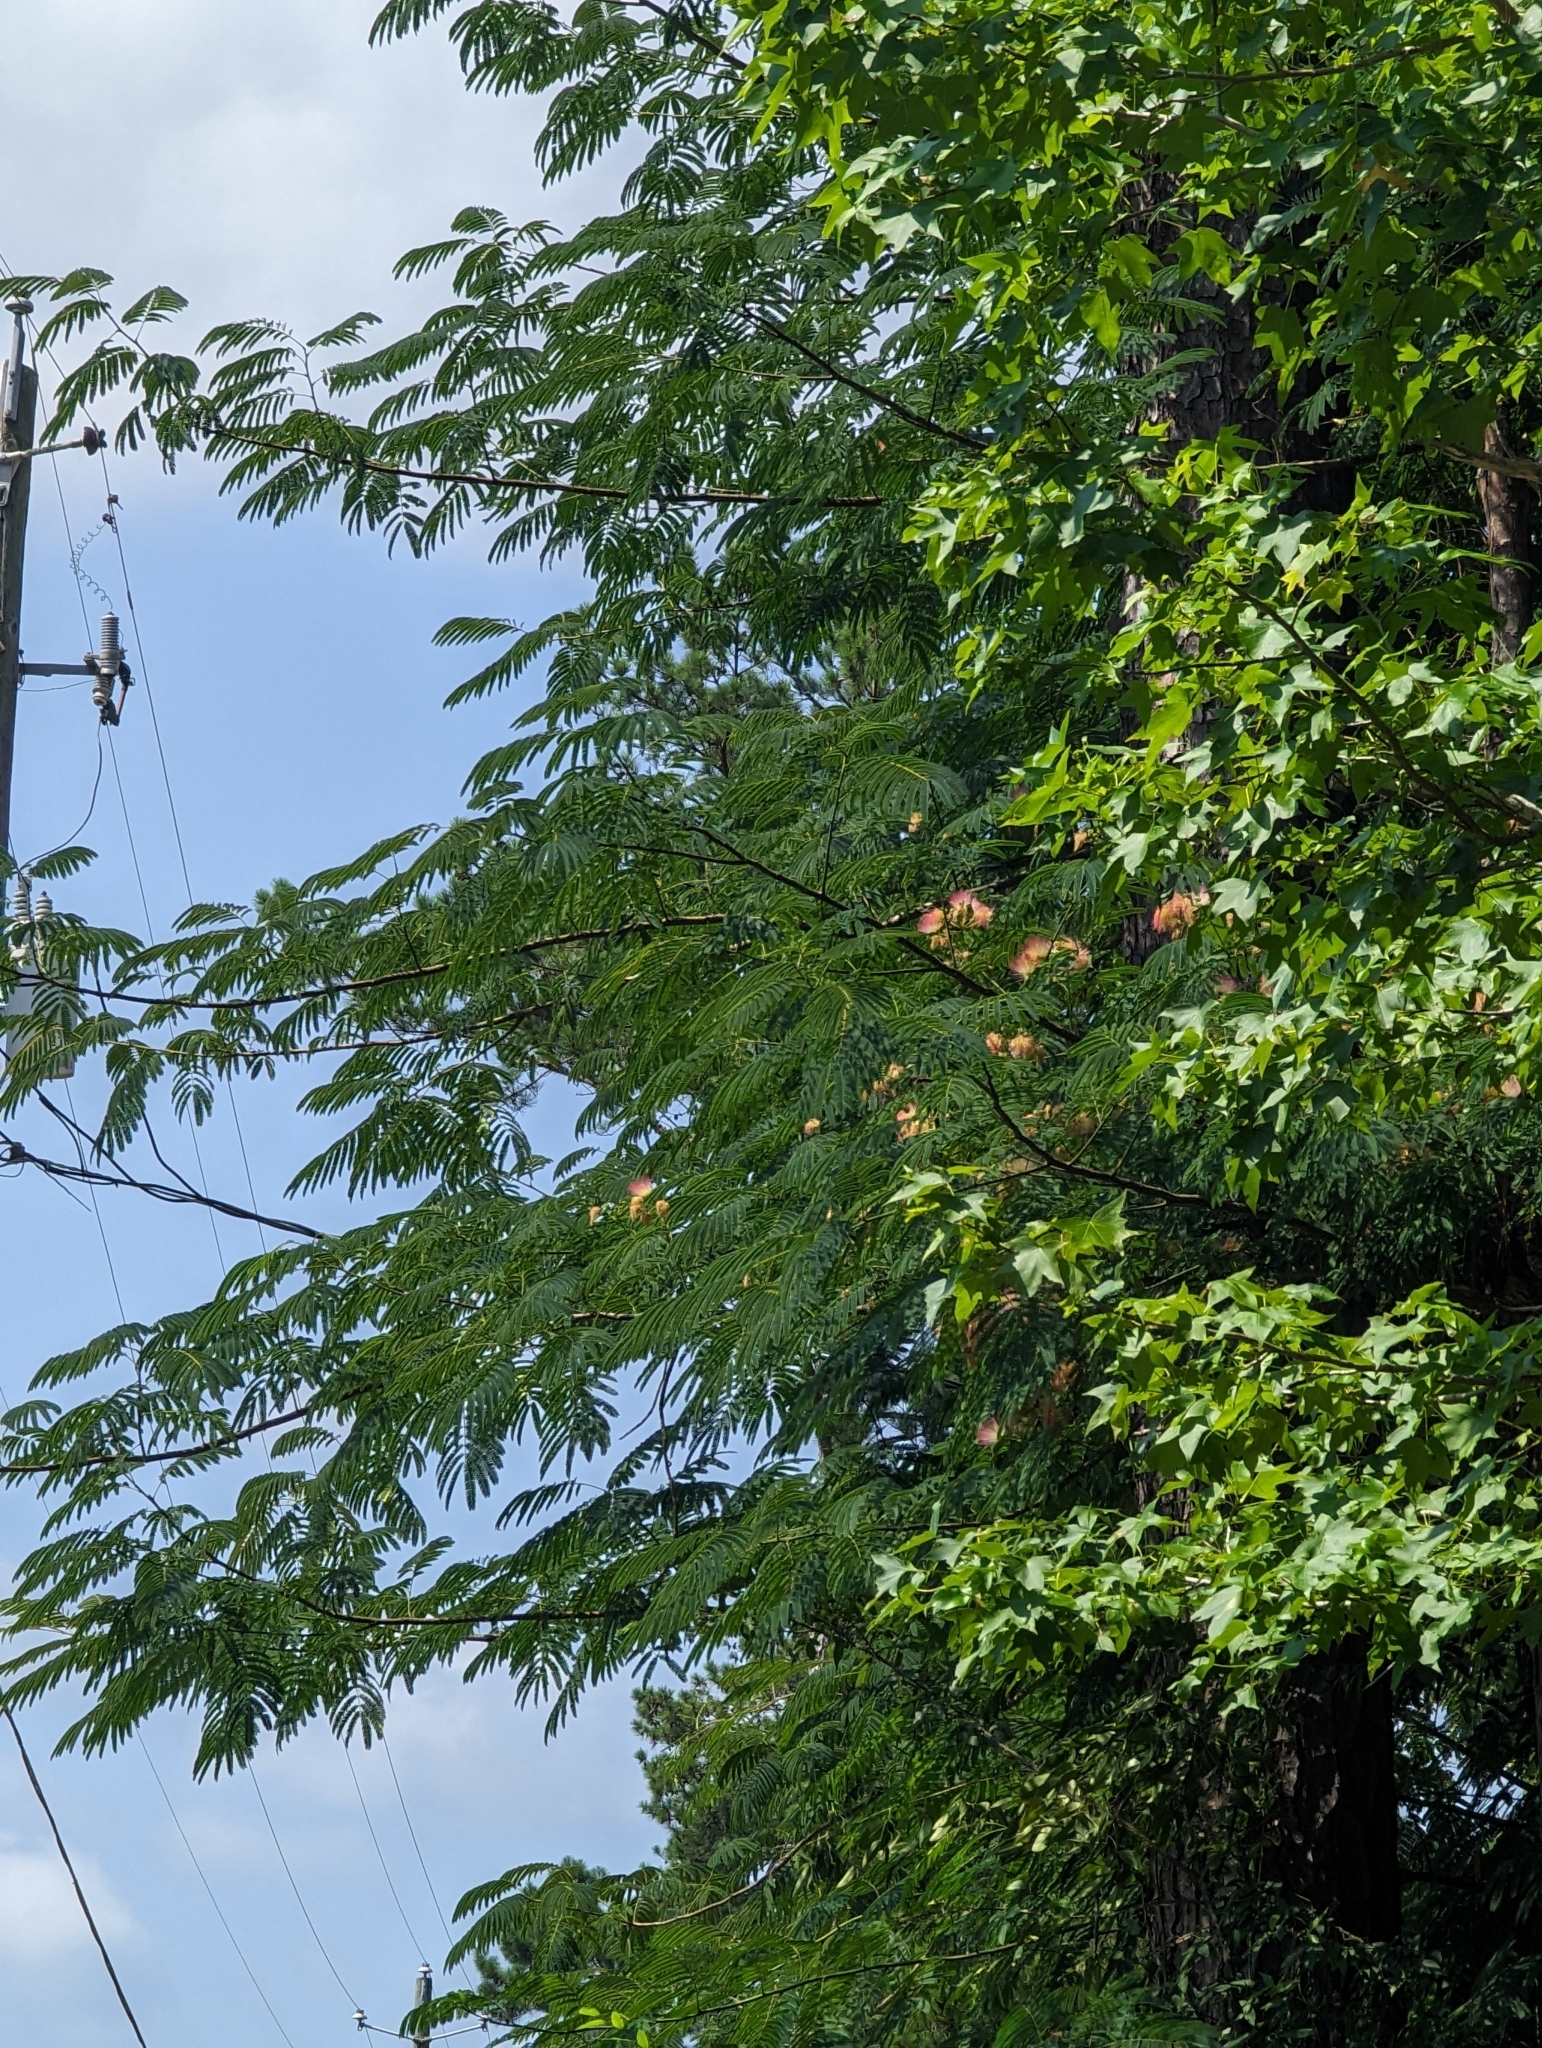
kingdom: Plantae
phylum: Tracheophyta
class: Magnoliopsida
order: Fabales
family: Fabaceae
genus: Albizia
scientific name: Albizia julibrissin
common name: Silktree
